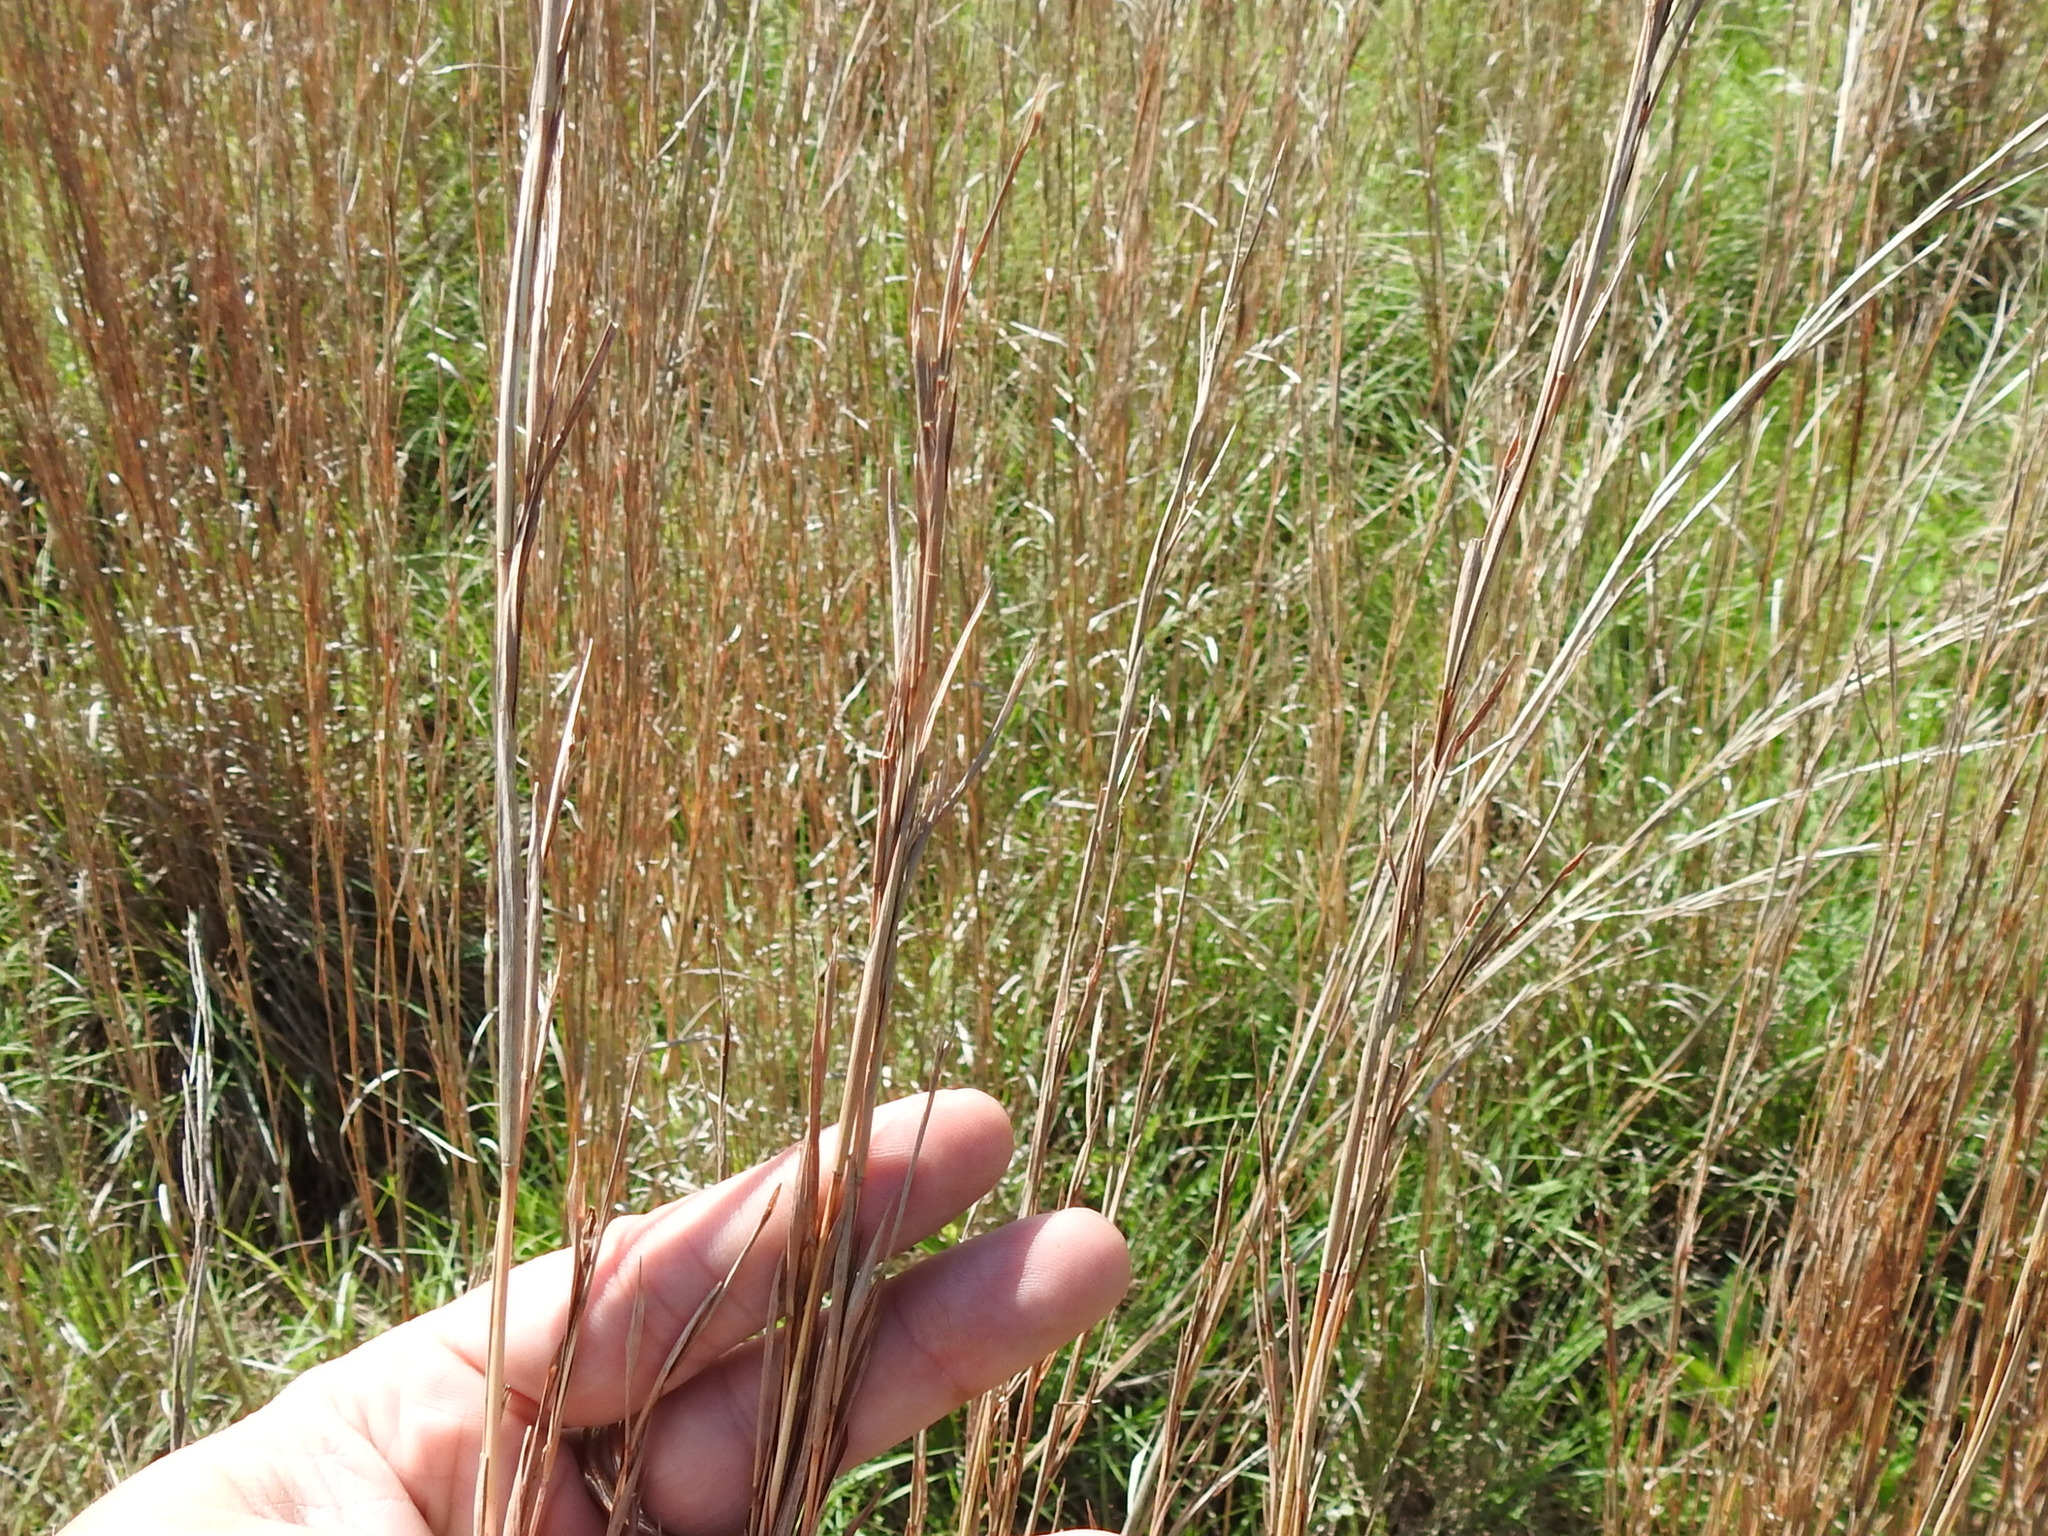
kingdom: Plantae
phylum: Tracheophyta
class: Liliopsida
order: Poales
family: Poaceae
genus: Schizachyrium
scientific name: Schizachyrium scoparium
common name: Little bluestem
